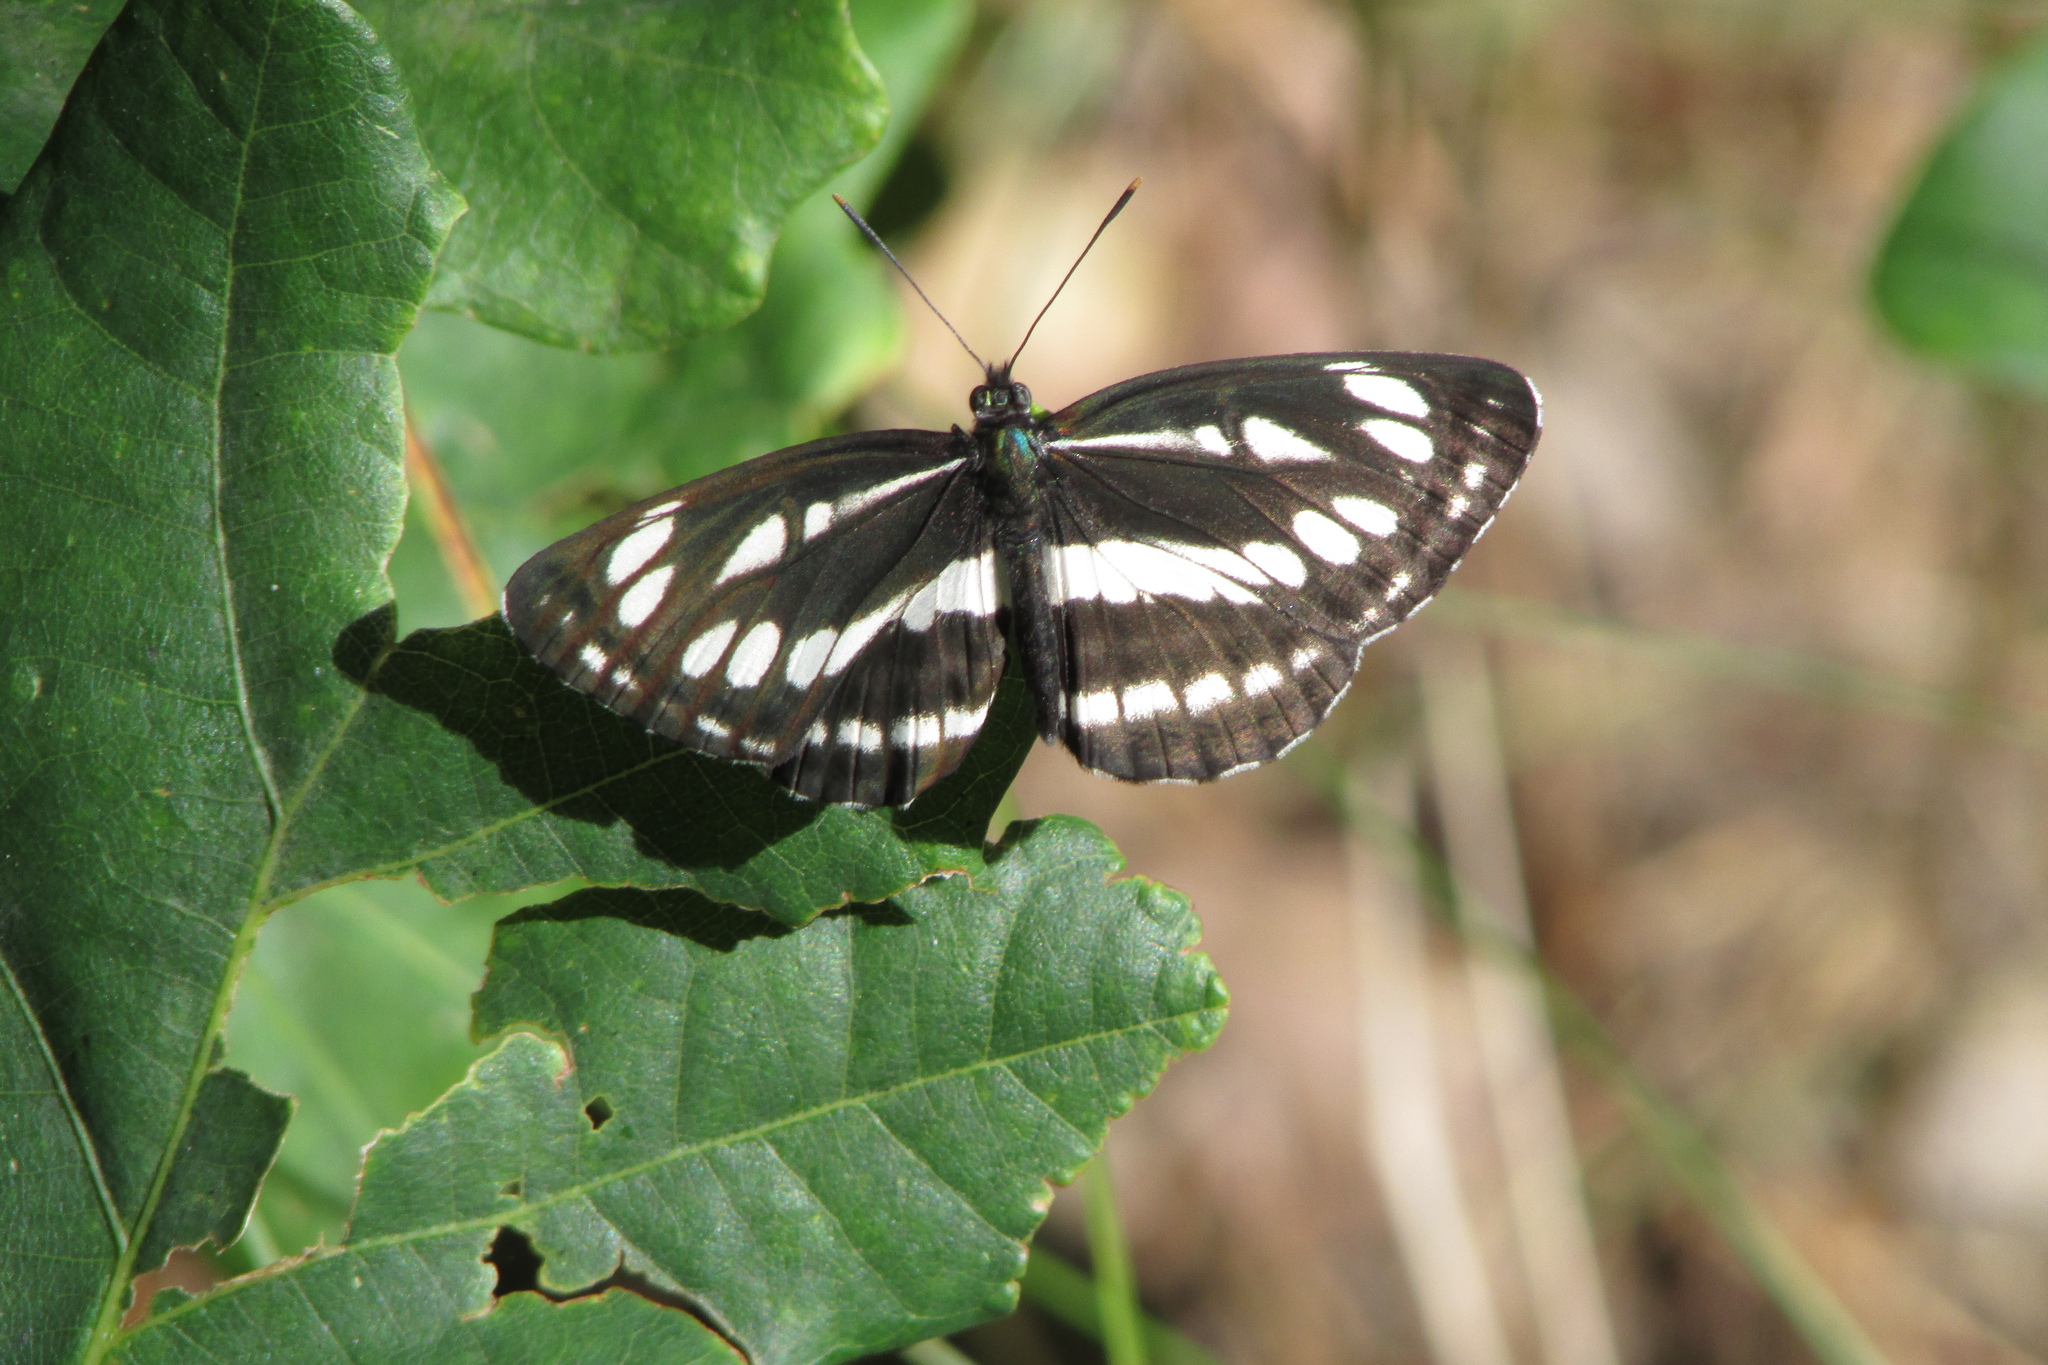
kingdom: Animalia
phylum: Arthropoda
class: Insecta
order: Lepidoptera
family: Nymphalidae
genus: Neptis
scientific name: Neptis sappho
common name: Common glider
